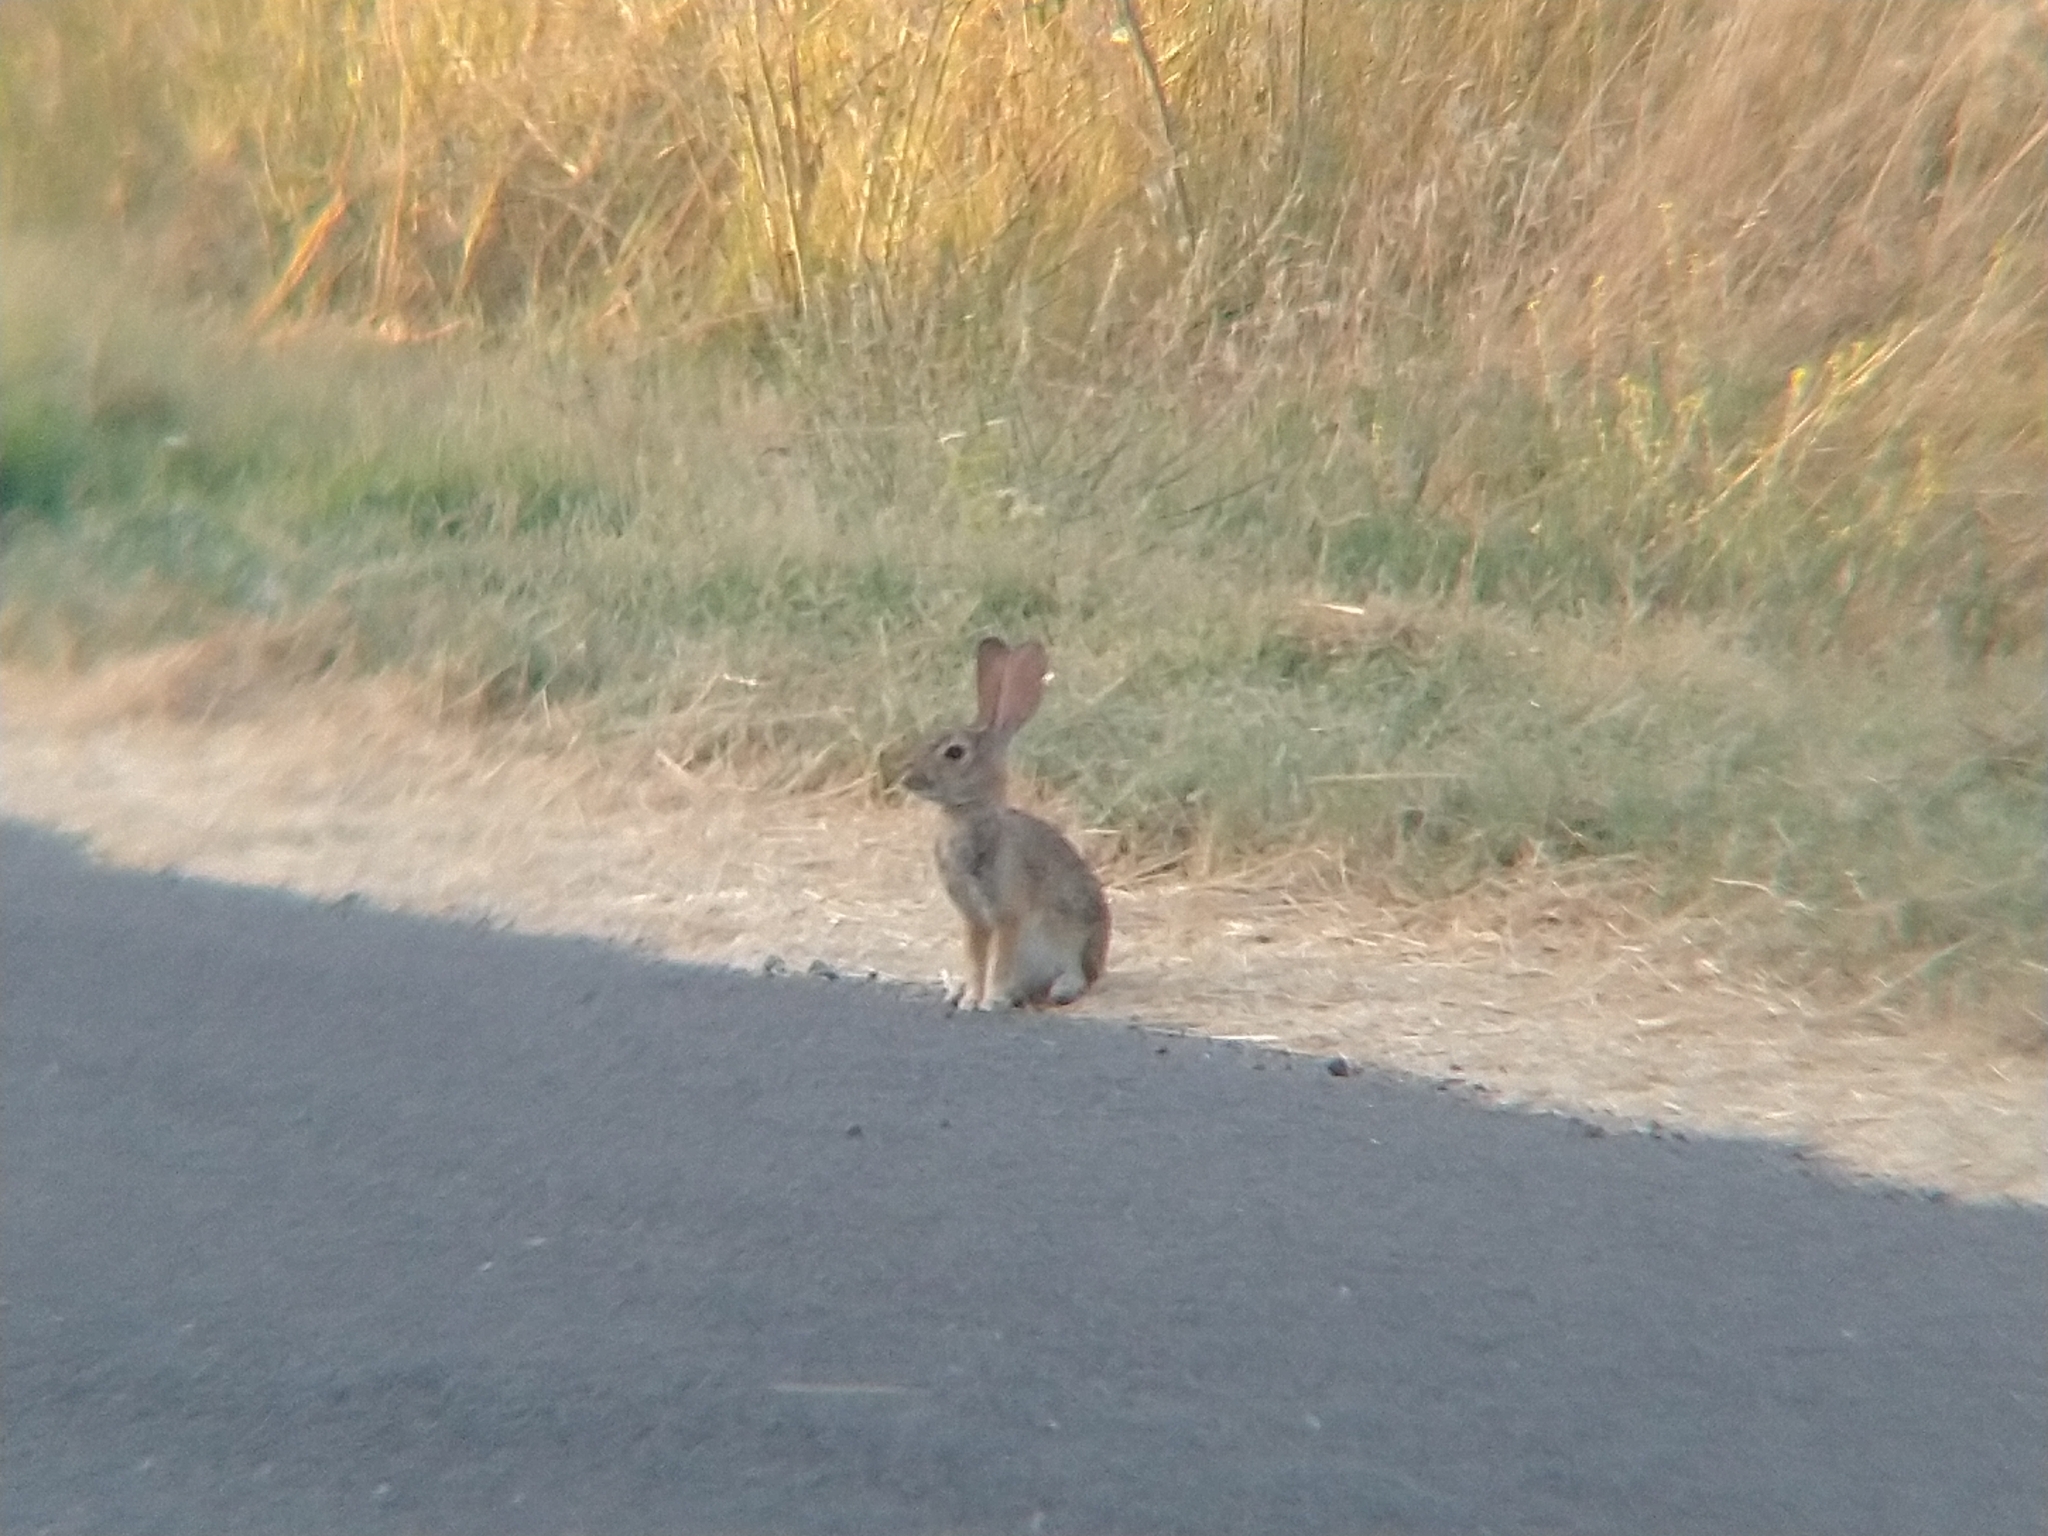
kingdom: Animalia
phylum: Chordata
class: Mammalia
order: Lagomorpha
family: Leporidae
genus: Sylvilagus
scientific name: Sylvilagus audubonii
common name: Desert cottontail
